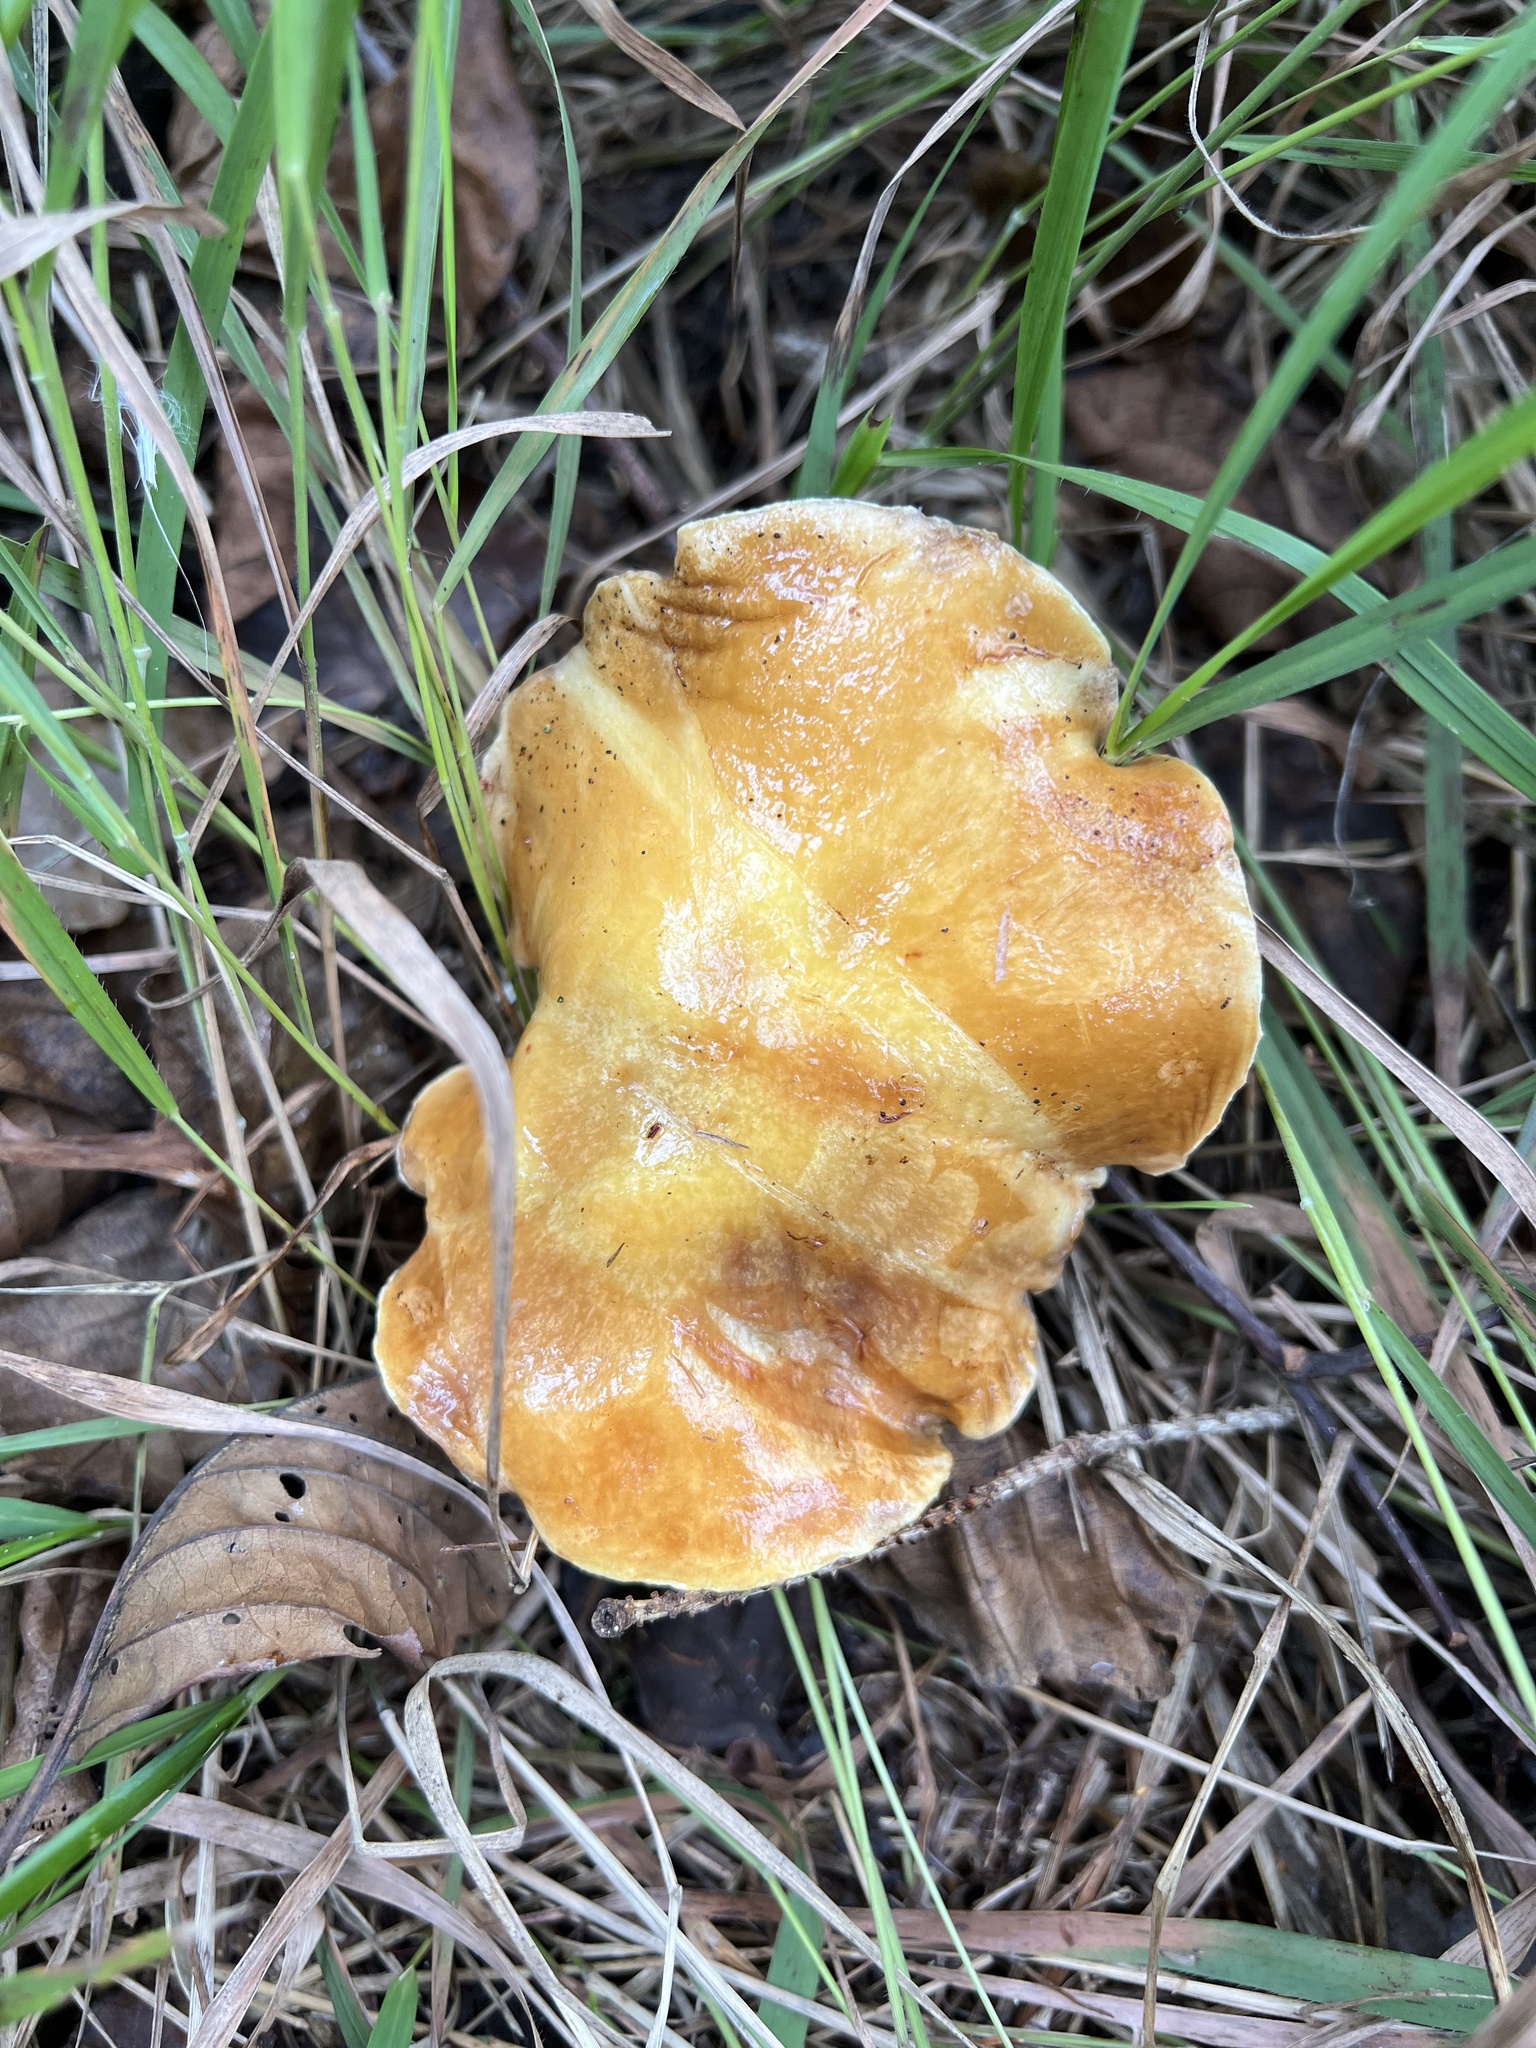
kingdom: Fungi
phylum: Basidiomycota
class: Agaricomycetes
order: Boletales
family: Suillaceae
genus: Suillus
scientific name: Suillus grevillei
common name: Larch bolete
